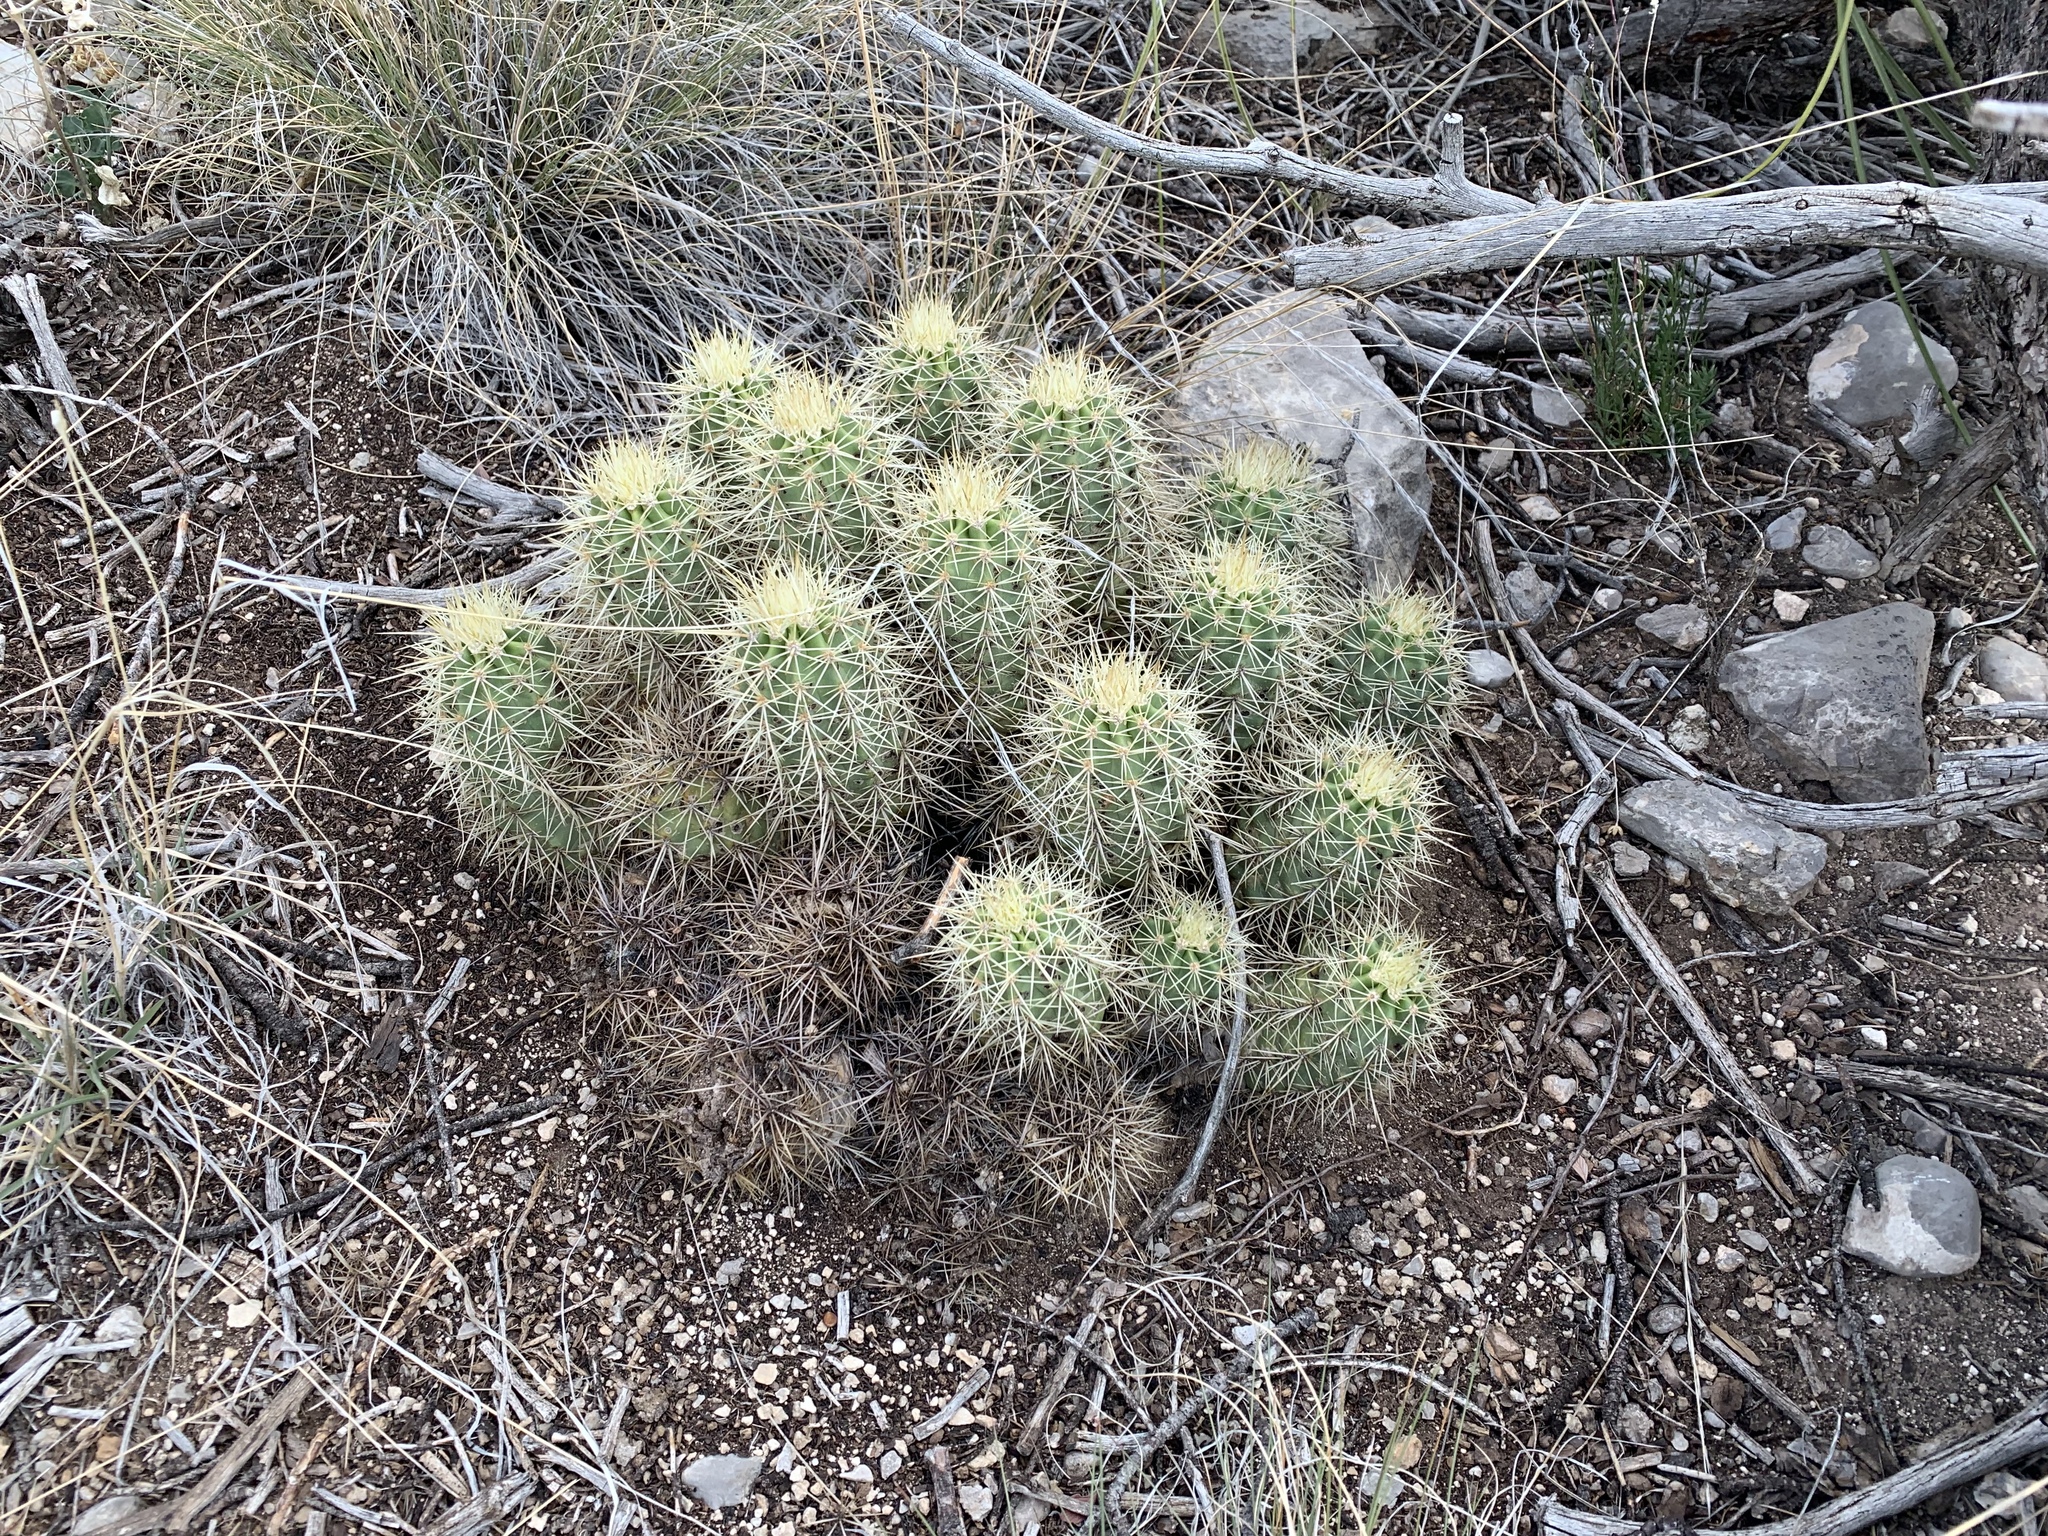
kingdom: Plantae
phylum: Tracheophyta
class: Magnoliopsida
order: Caryophyllales
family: Cactaceae
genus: Echinocereus
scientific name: Echinocereus coccineus
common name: Scarlet hedgehog cactus
